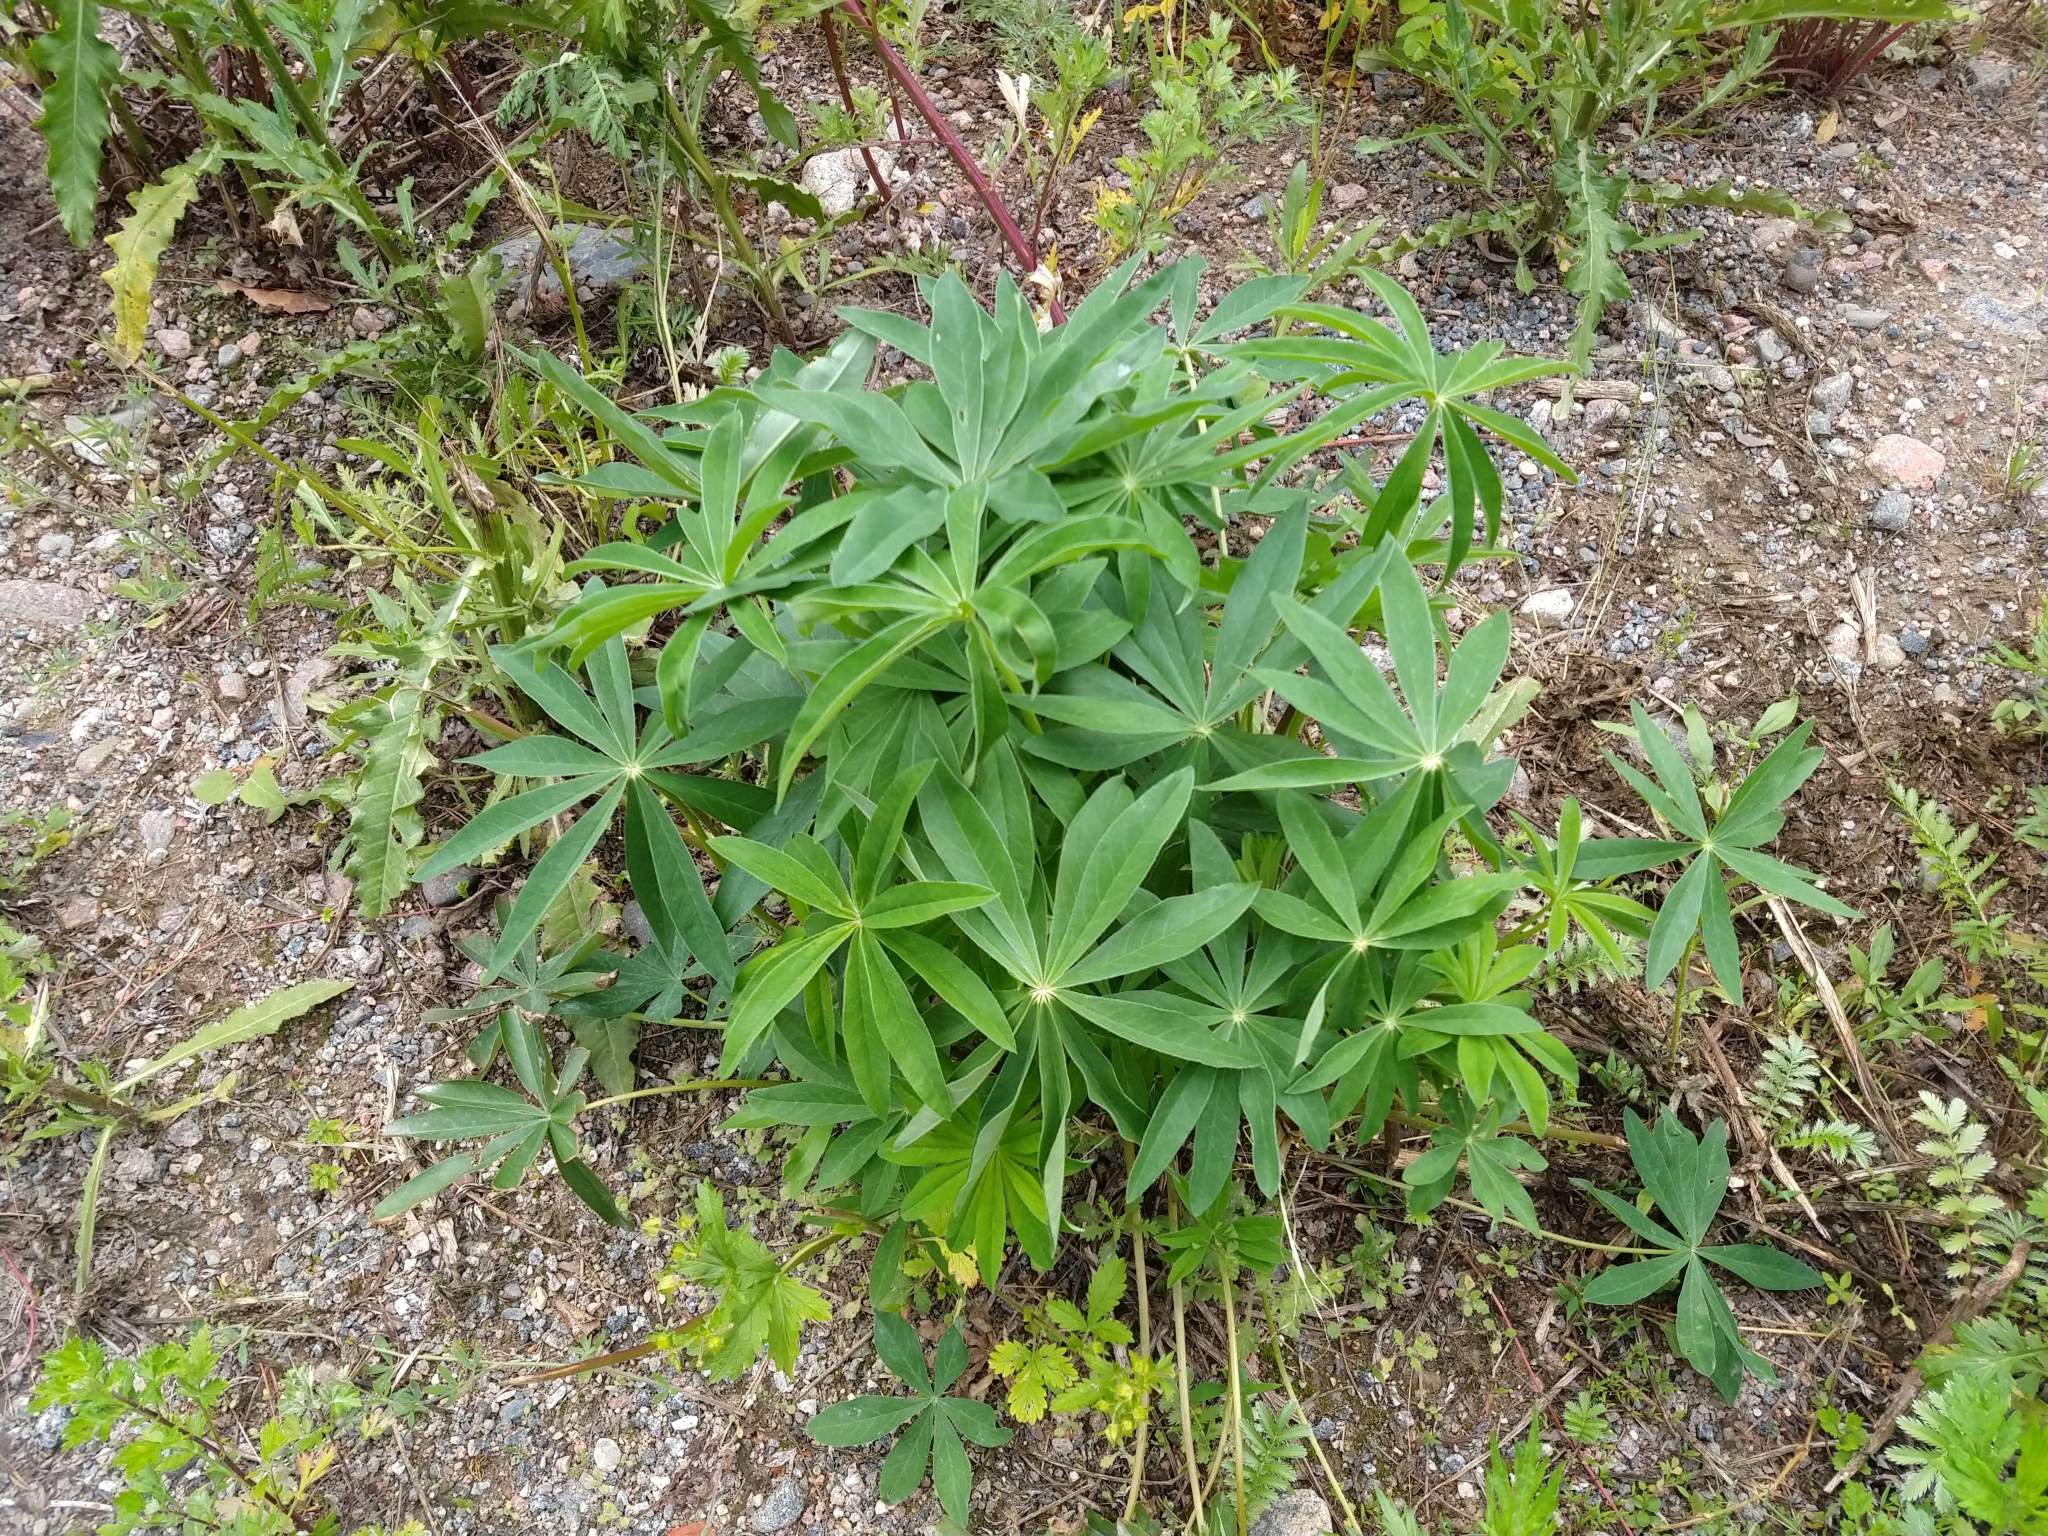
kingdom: Plantae
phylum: Tracheophyta
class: Magnoliopsida
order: Fabales
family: Fabaceae
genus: Lupinus
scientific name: Lupinus polyphyllus
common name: Garden lupin
